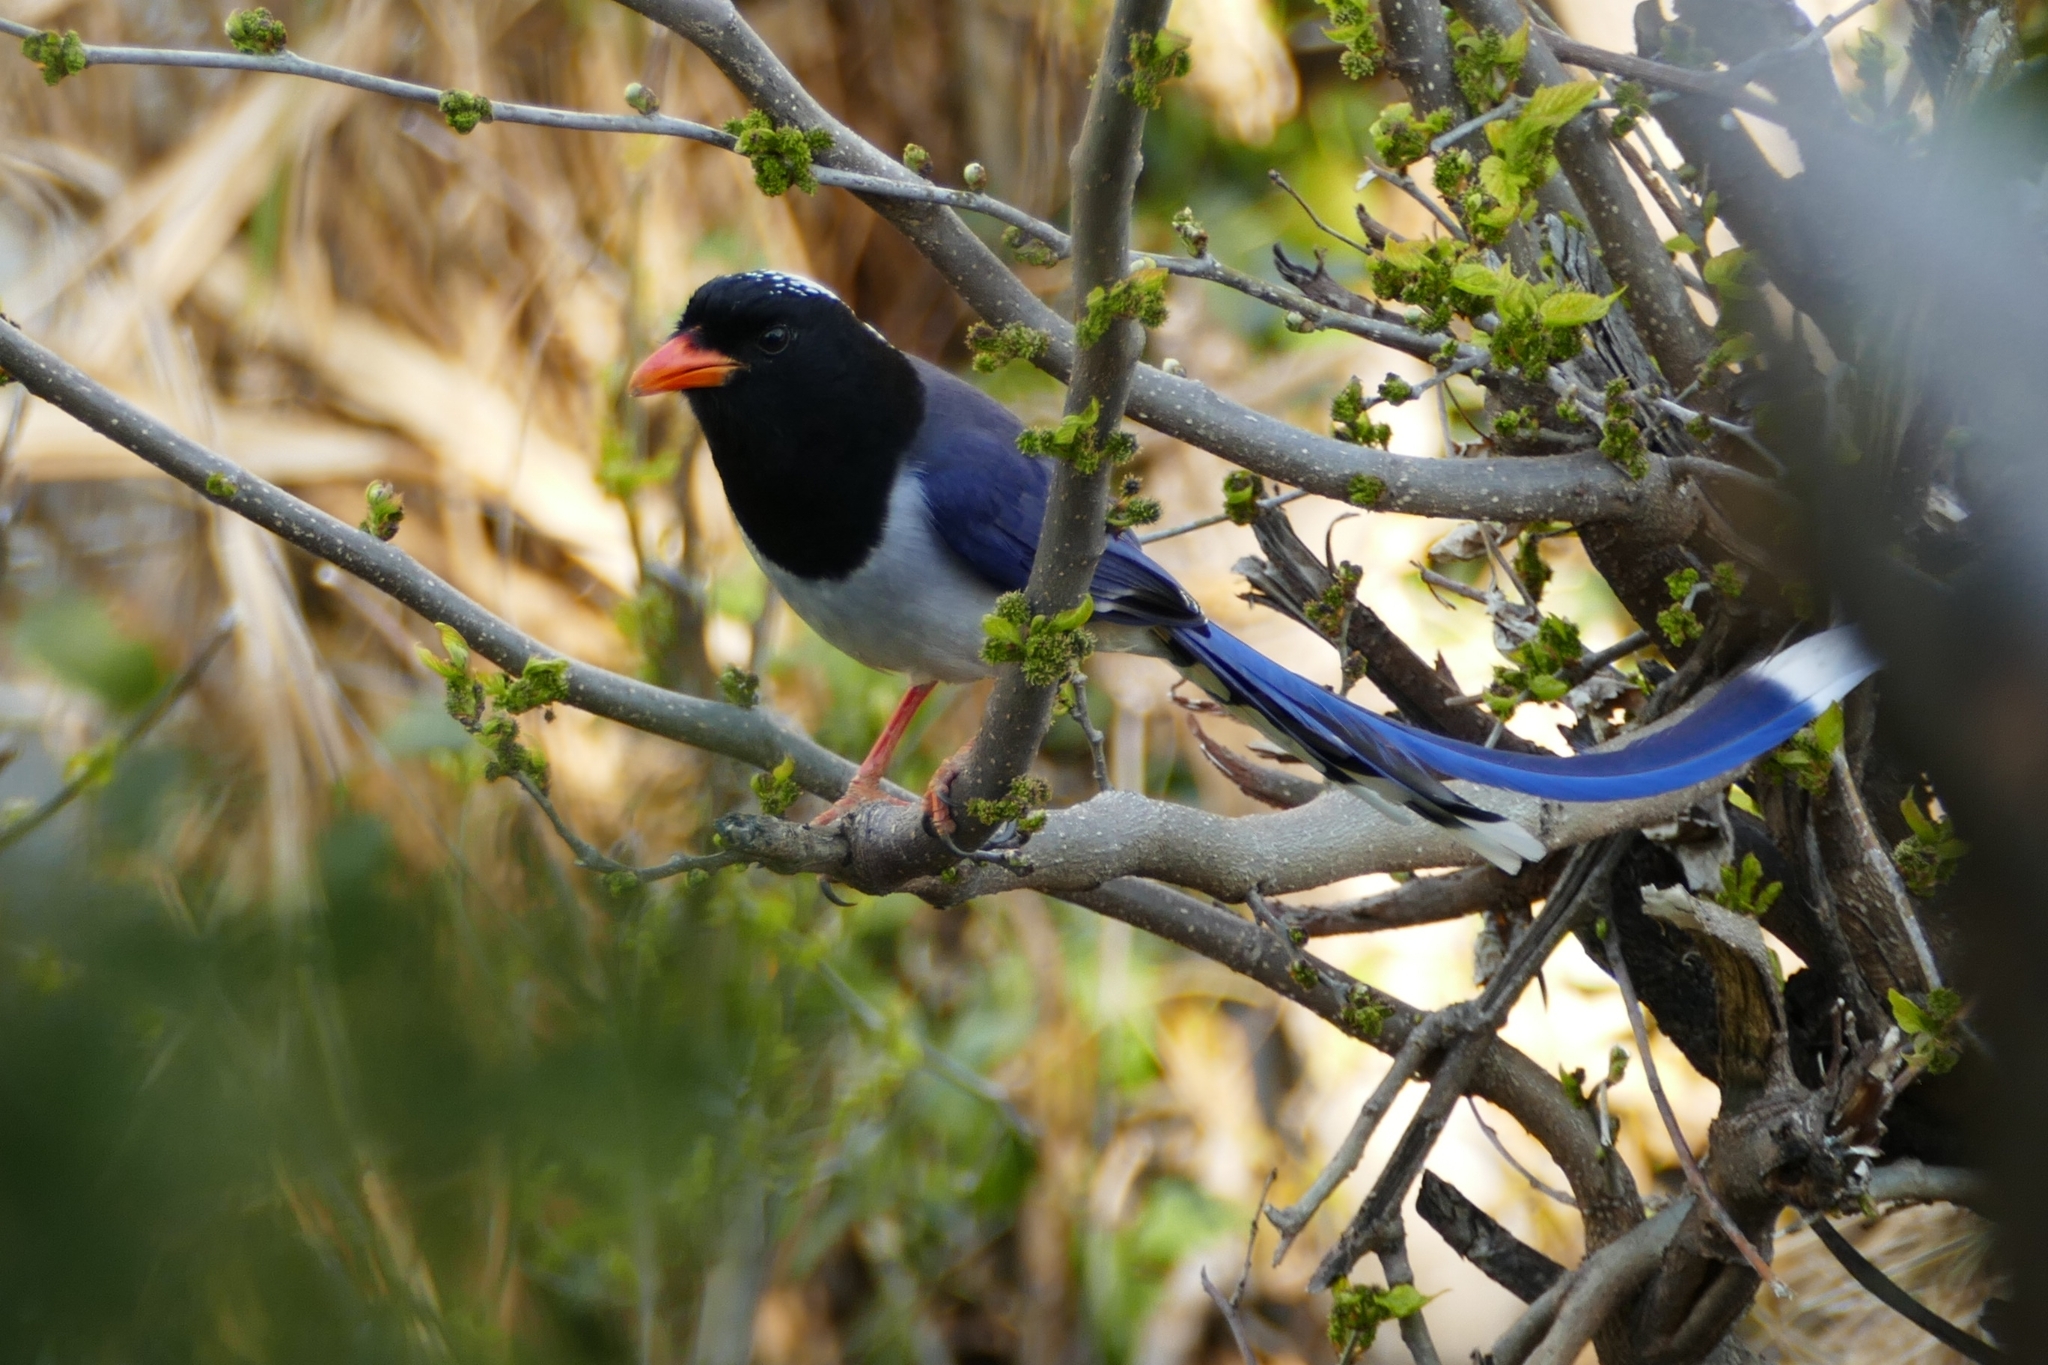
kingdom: Animalia
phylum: Chordata
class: Aves
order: Passeriformes
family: Corvidae
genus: Urocissa
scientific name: Urocissa erythroryncha
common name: Red-billed blue magpie
